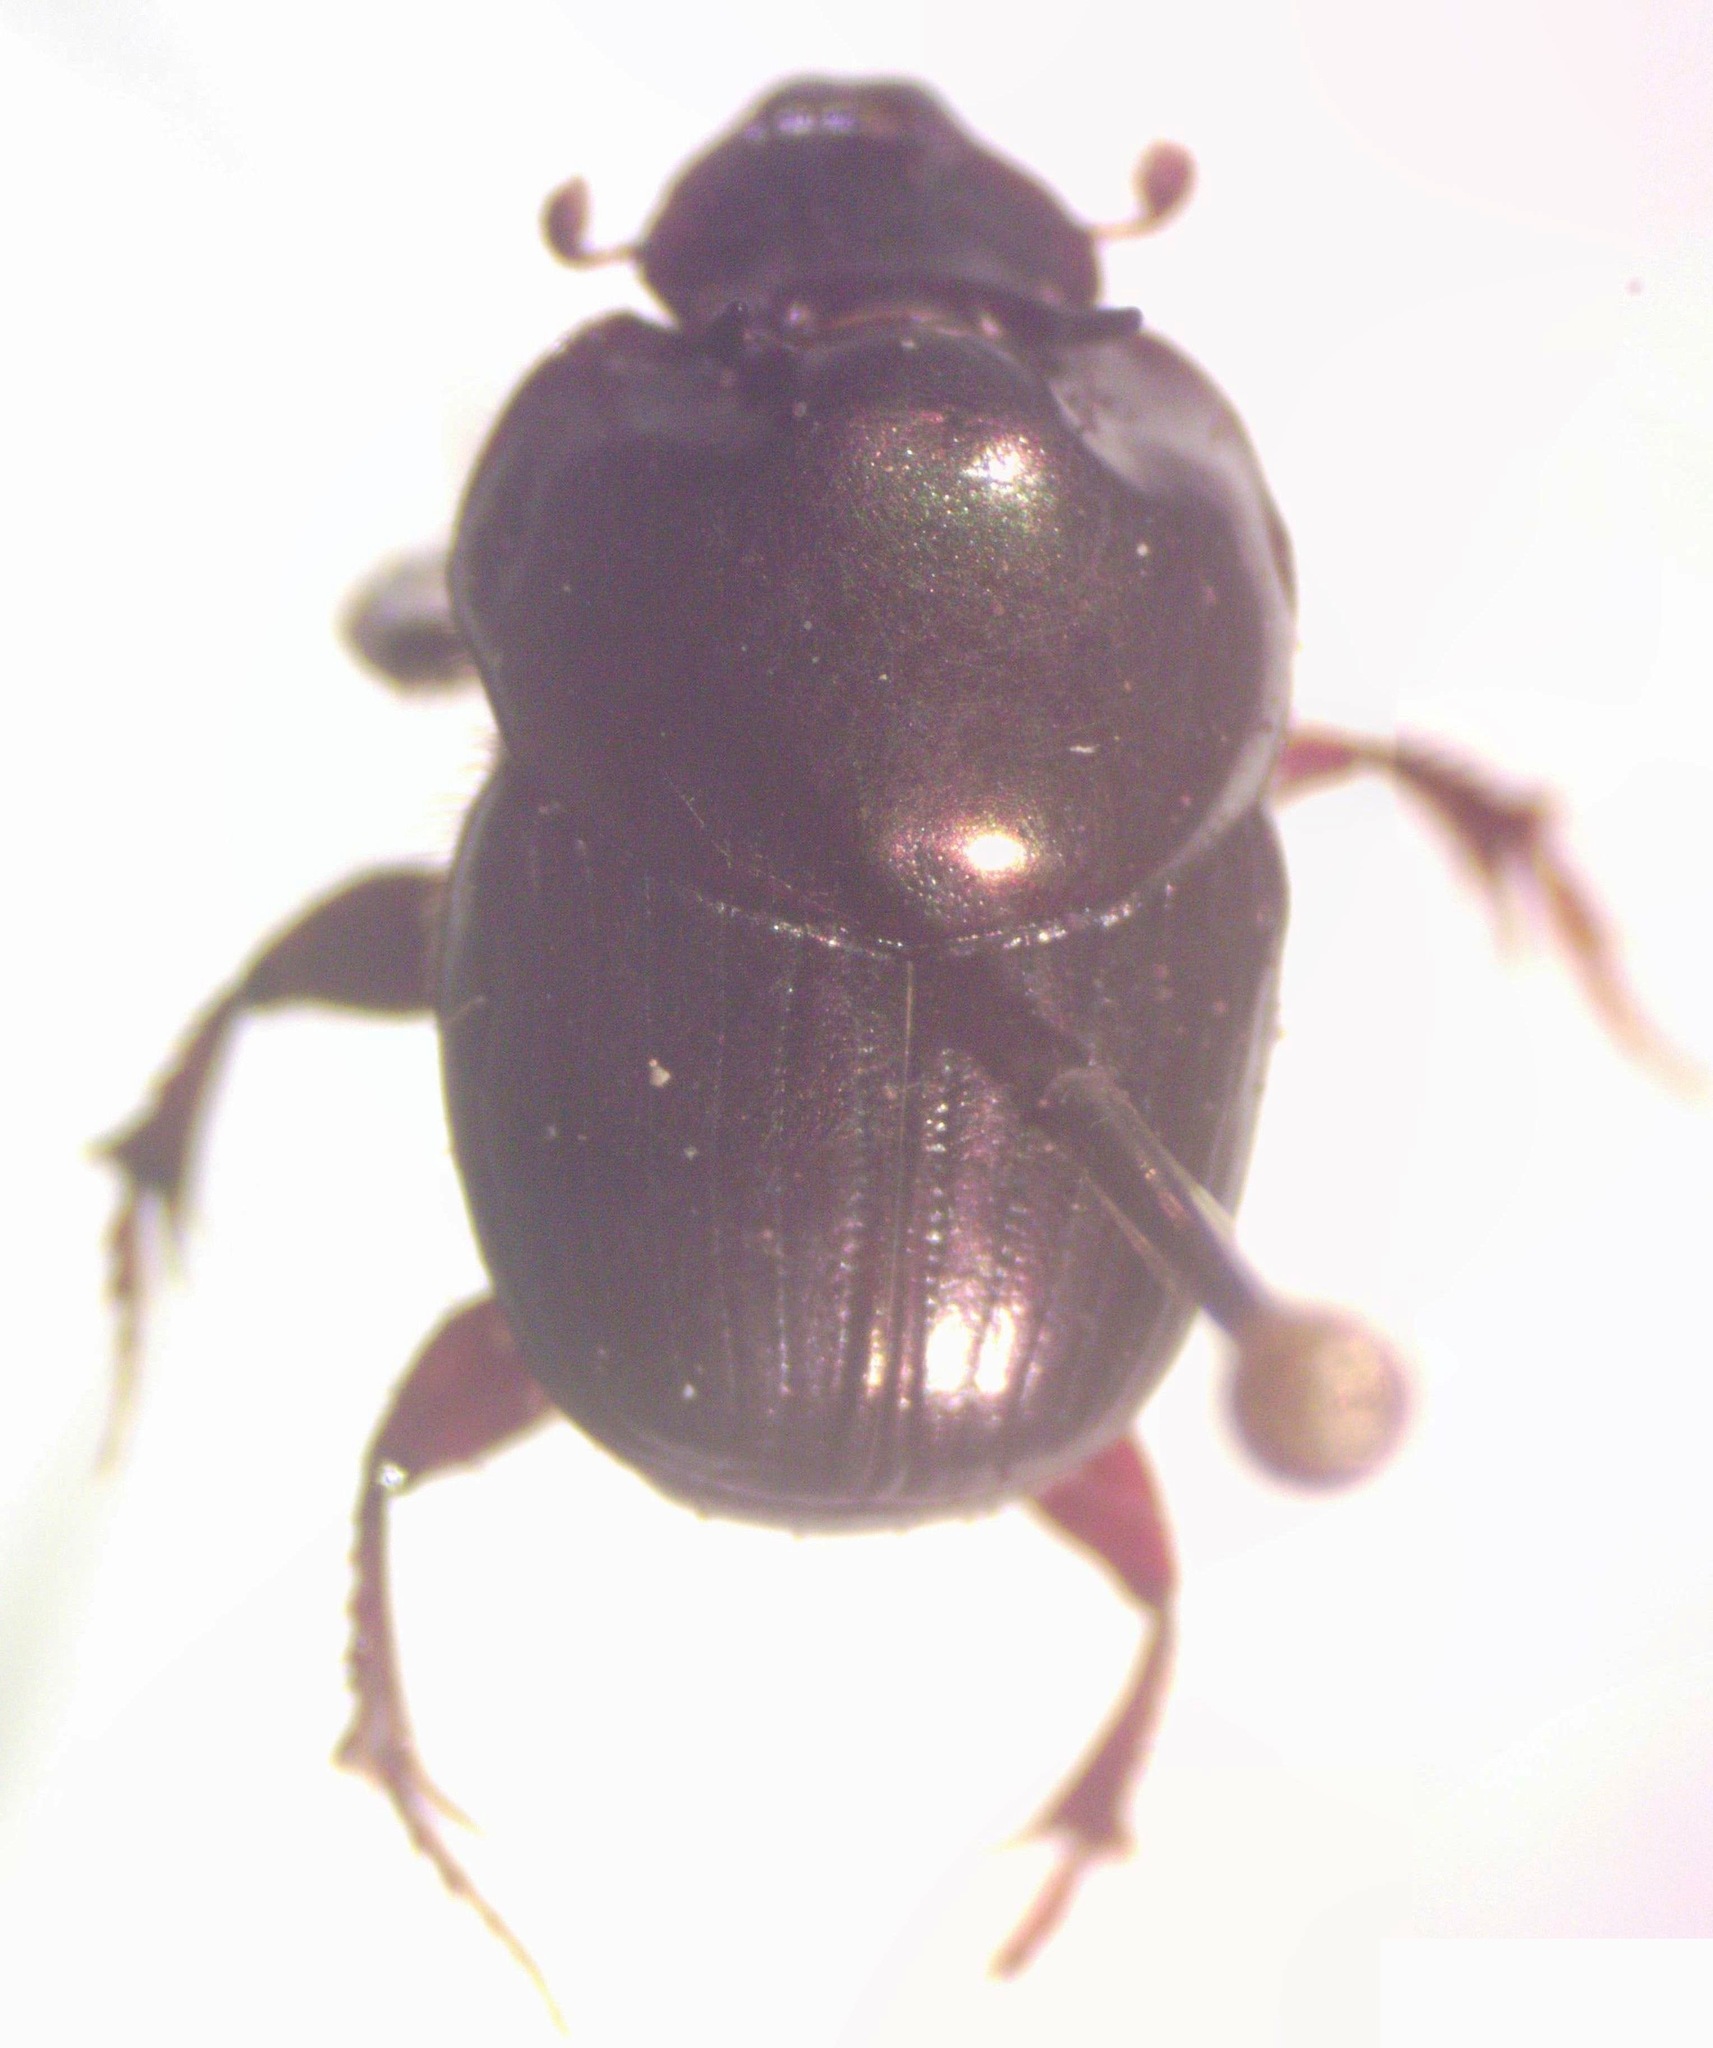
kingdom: Animalia
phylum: Arthropoda
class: Insecta
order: Coleoptera
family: Scarabaeidae
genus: Onthophagus
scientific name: Onthophagus batesi
